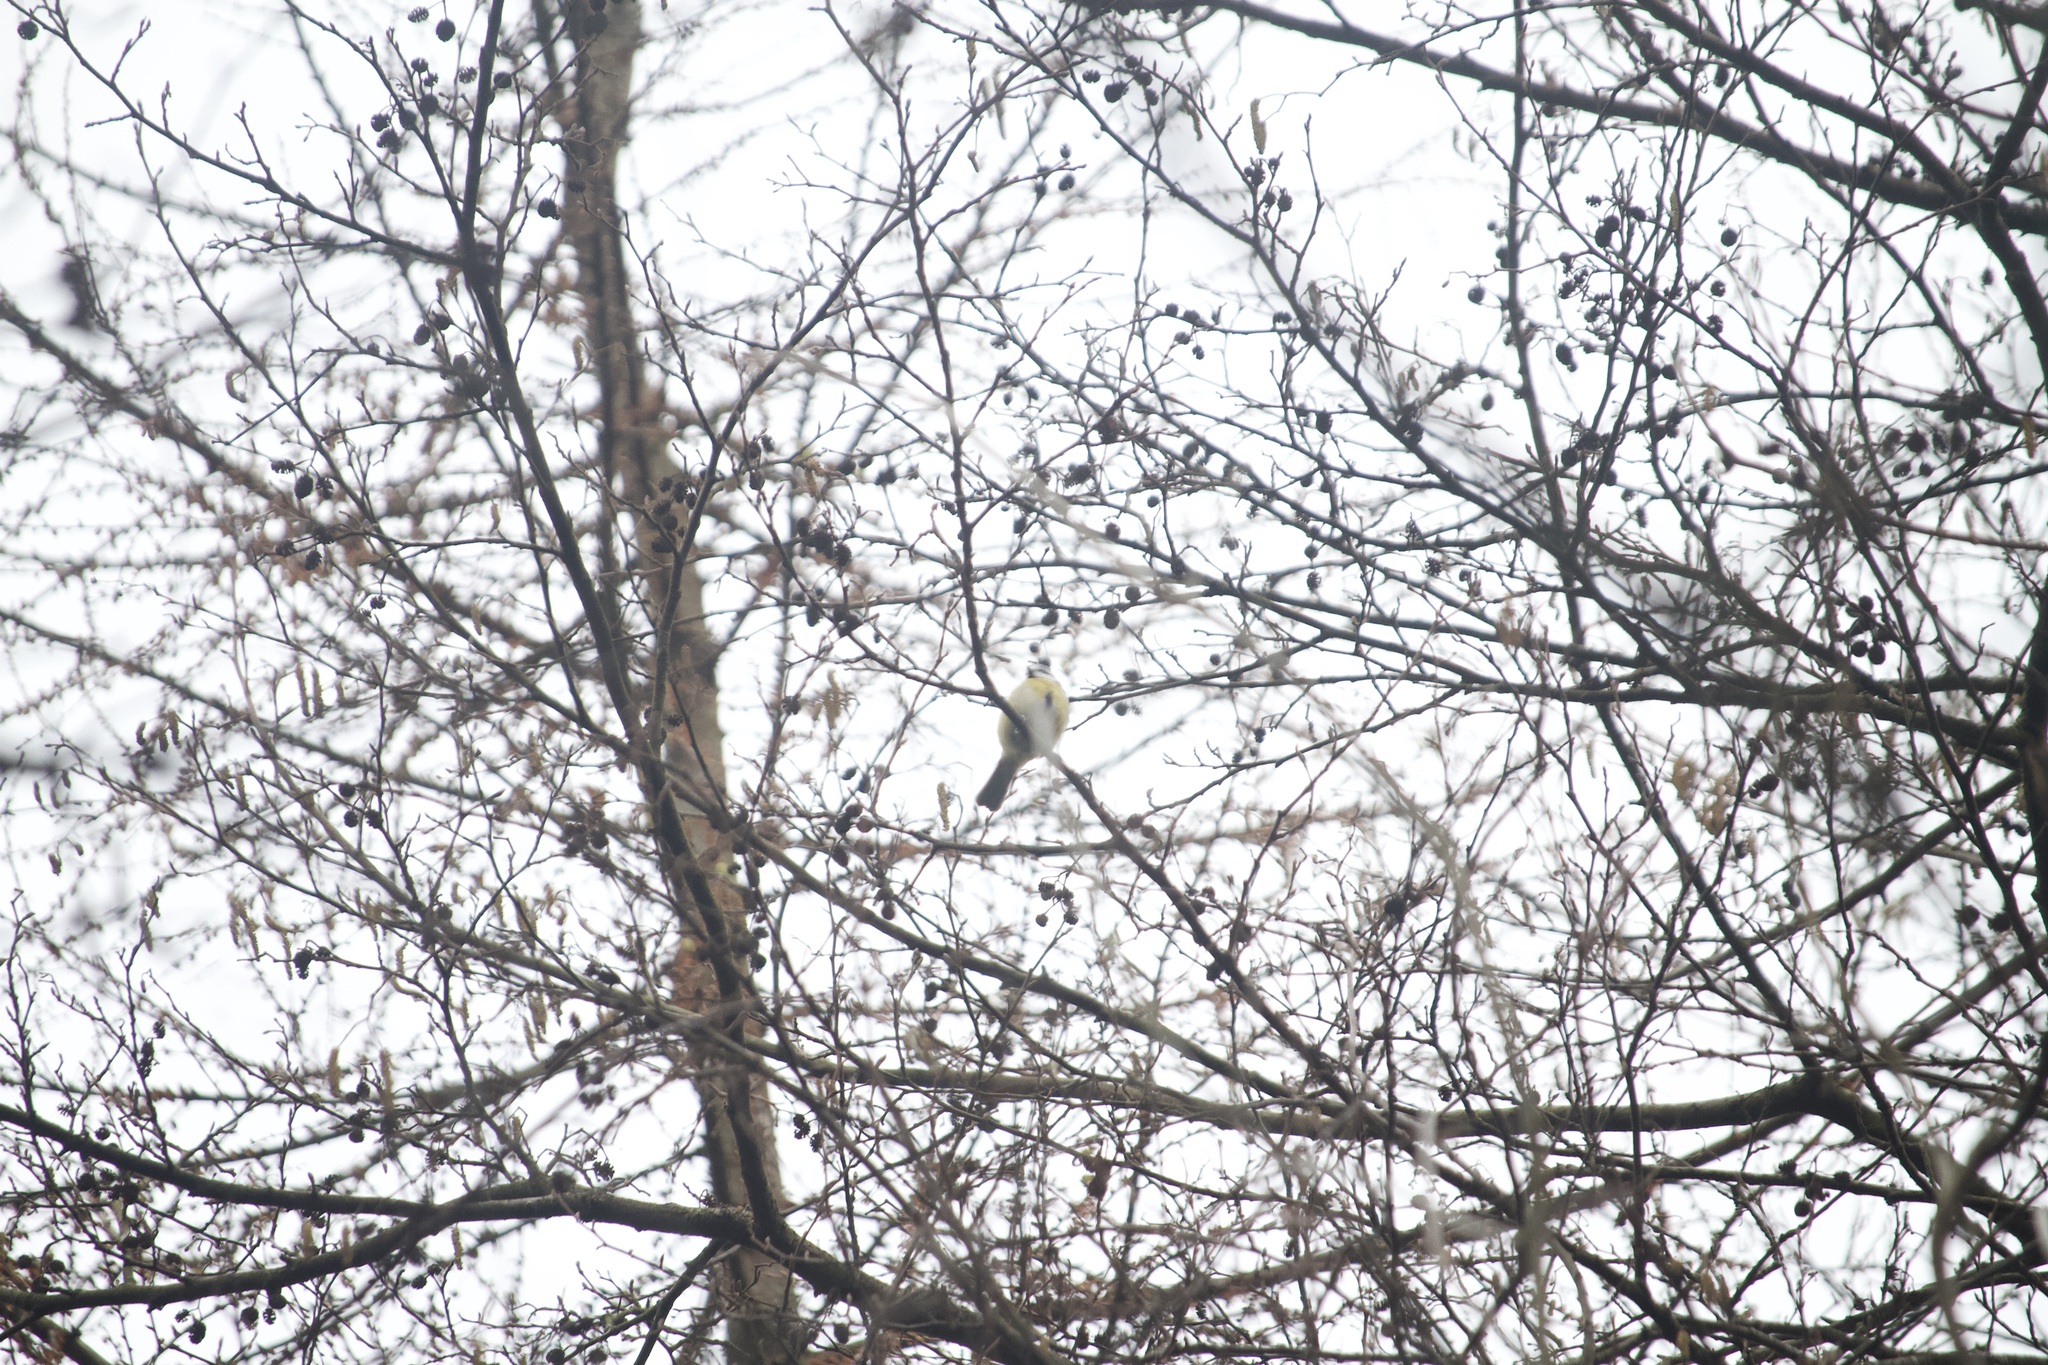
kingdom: Animalia
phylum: Chordata
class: Aves
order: Passeriformes
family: Paridae
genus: Cyanistes
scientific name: Cyanistes caeruleus
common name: Eurasian blue tit
